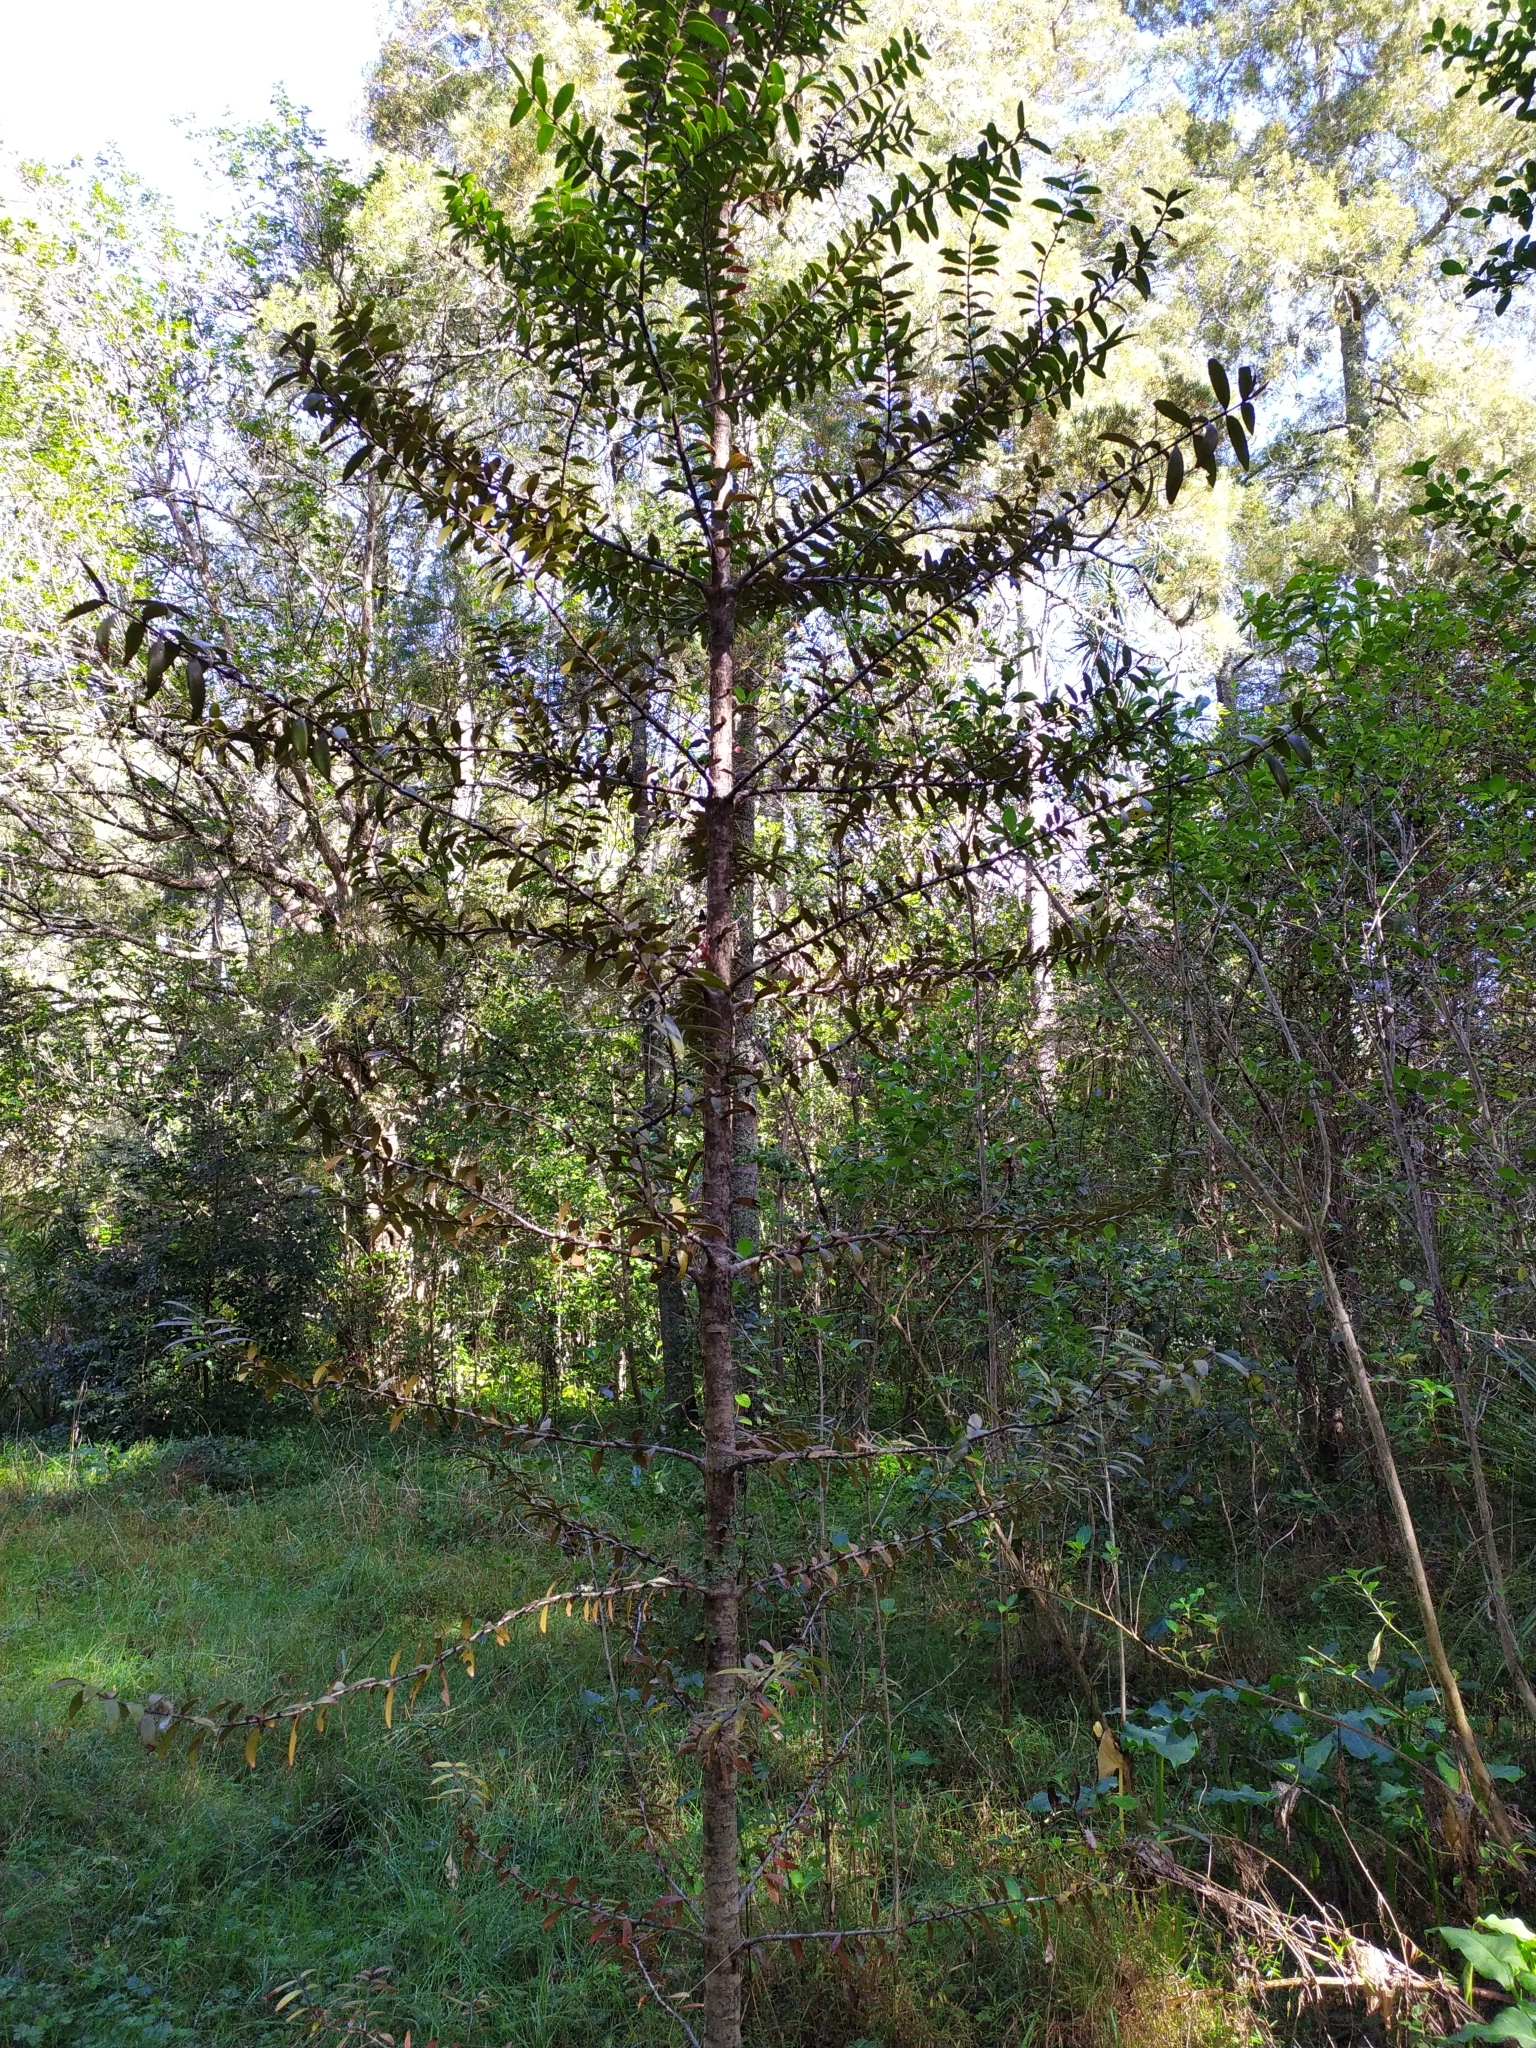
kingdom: Plantae
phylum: Tracheophyta
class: Pinopsida
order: Pinales
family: Araucariaceae
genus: Agathis
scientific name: Agathis australis
